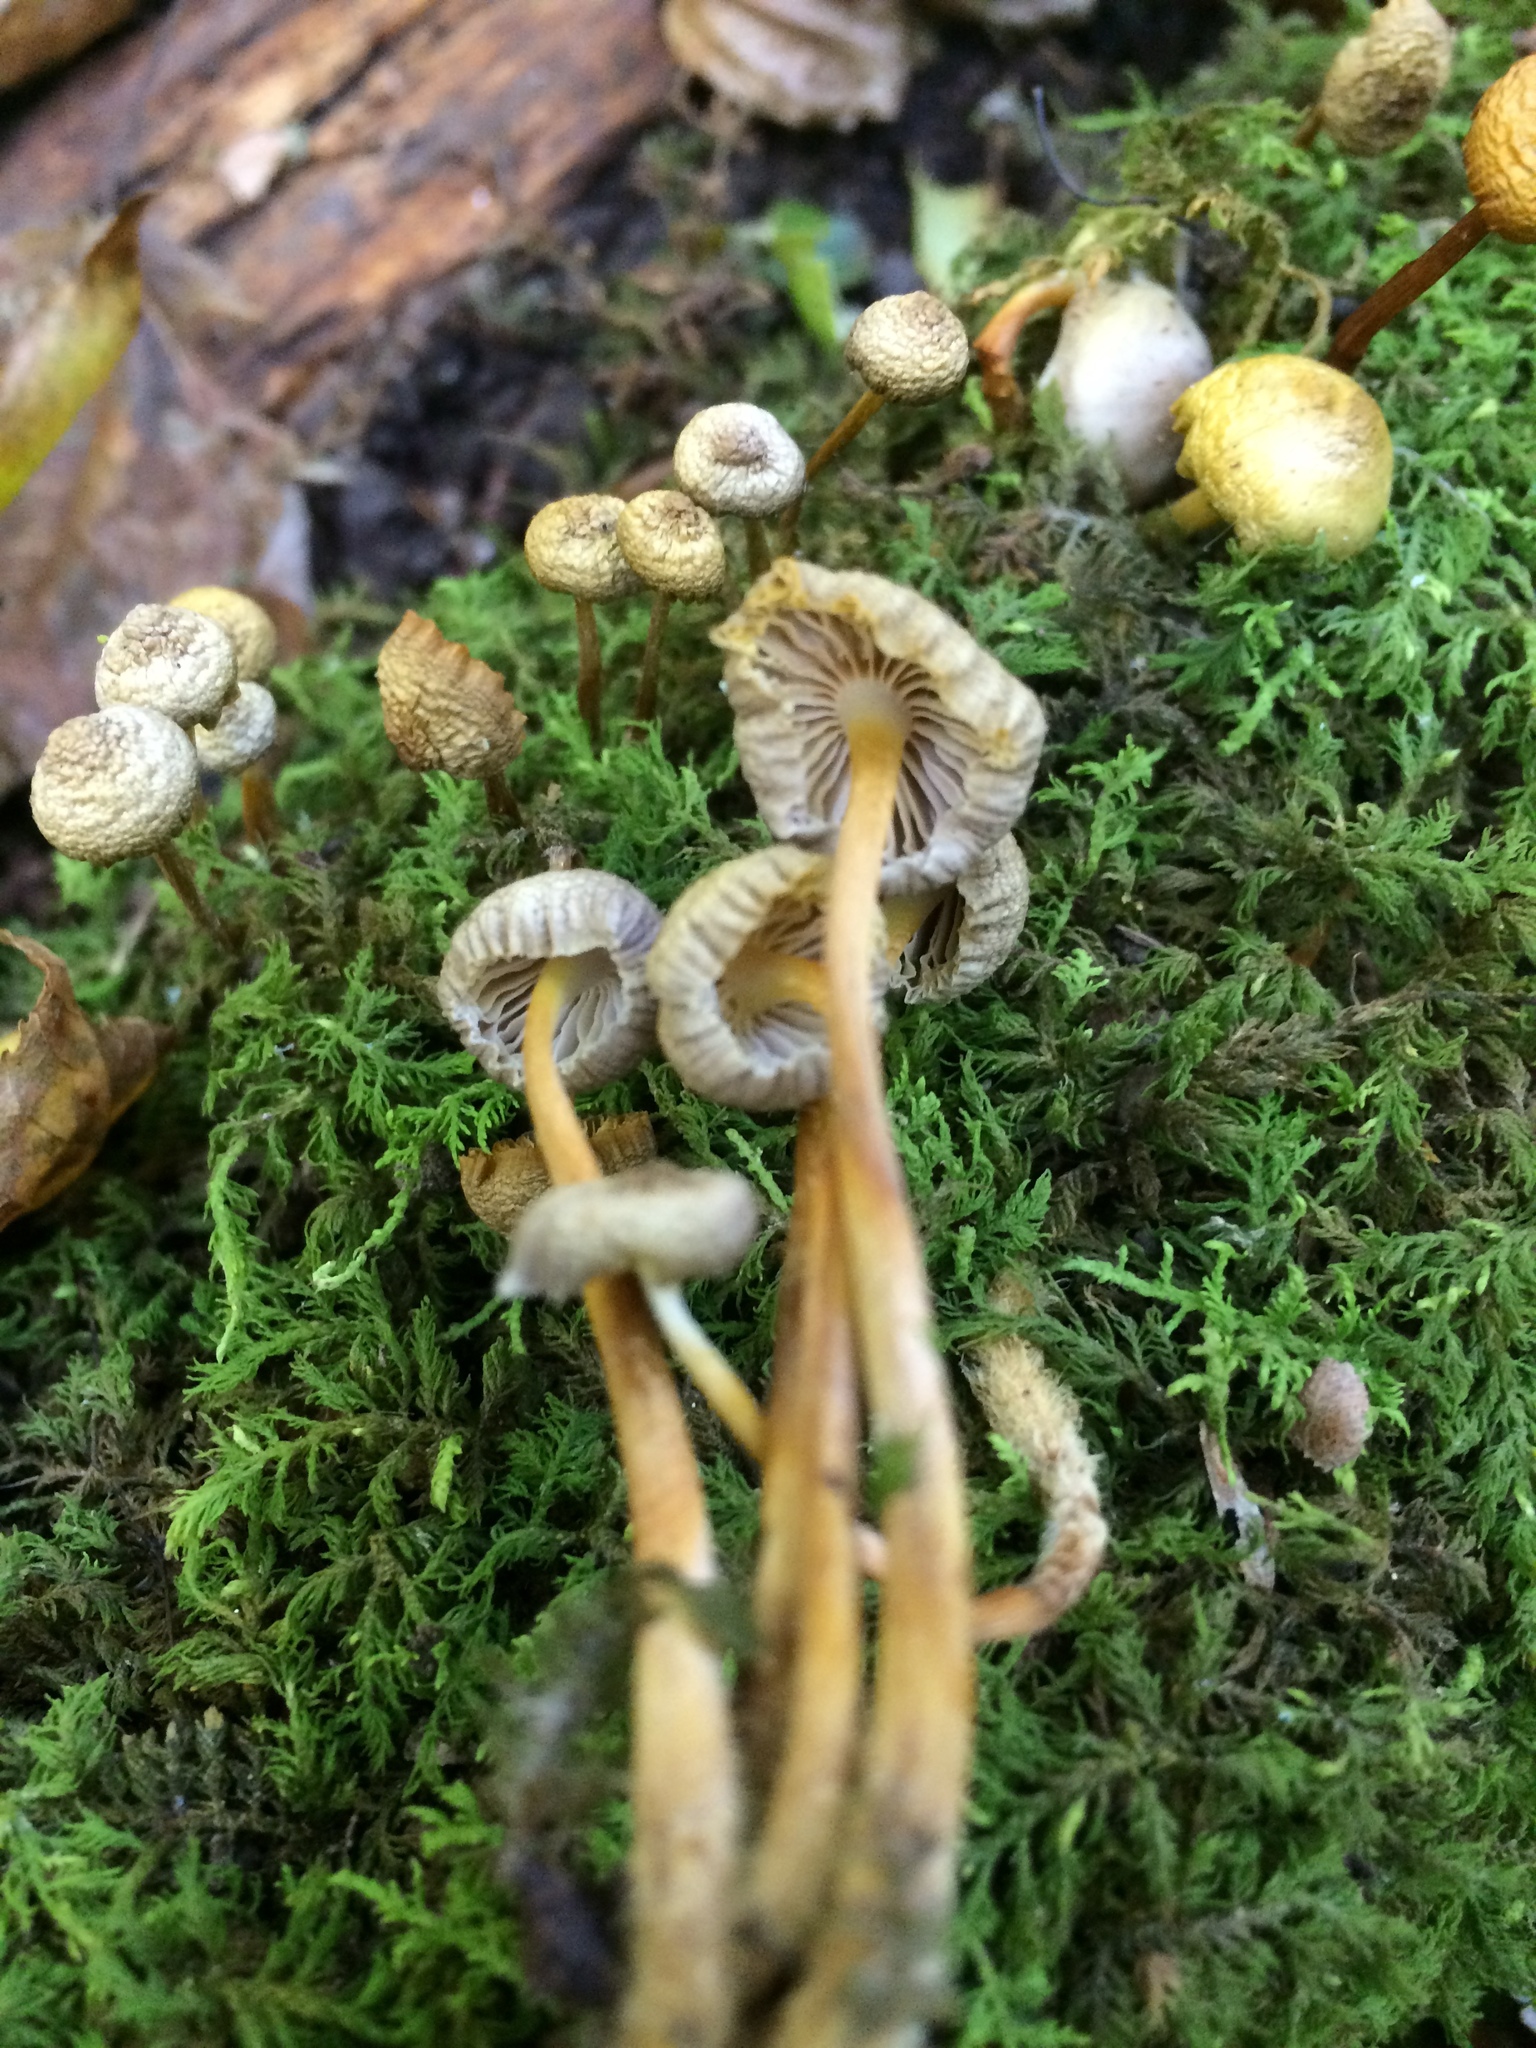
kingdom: Fungi
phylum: Basidiomycota
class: Agaricomycetes
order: Agaricales
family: Mycenaceae
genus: Mycena
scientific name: Mycena inclinata
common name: Clustered bonnet
